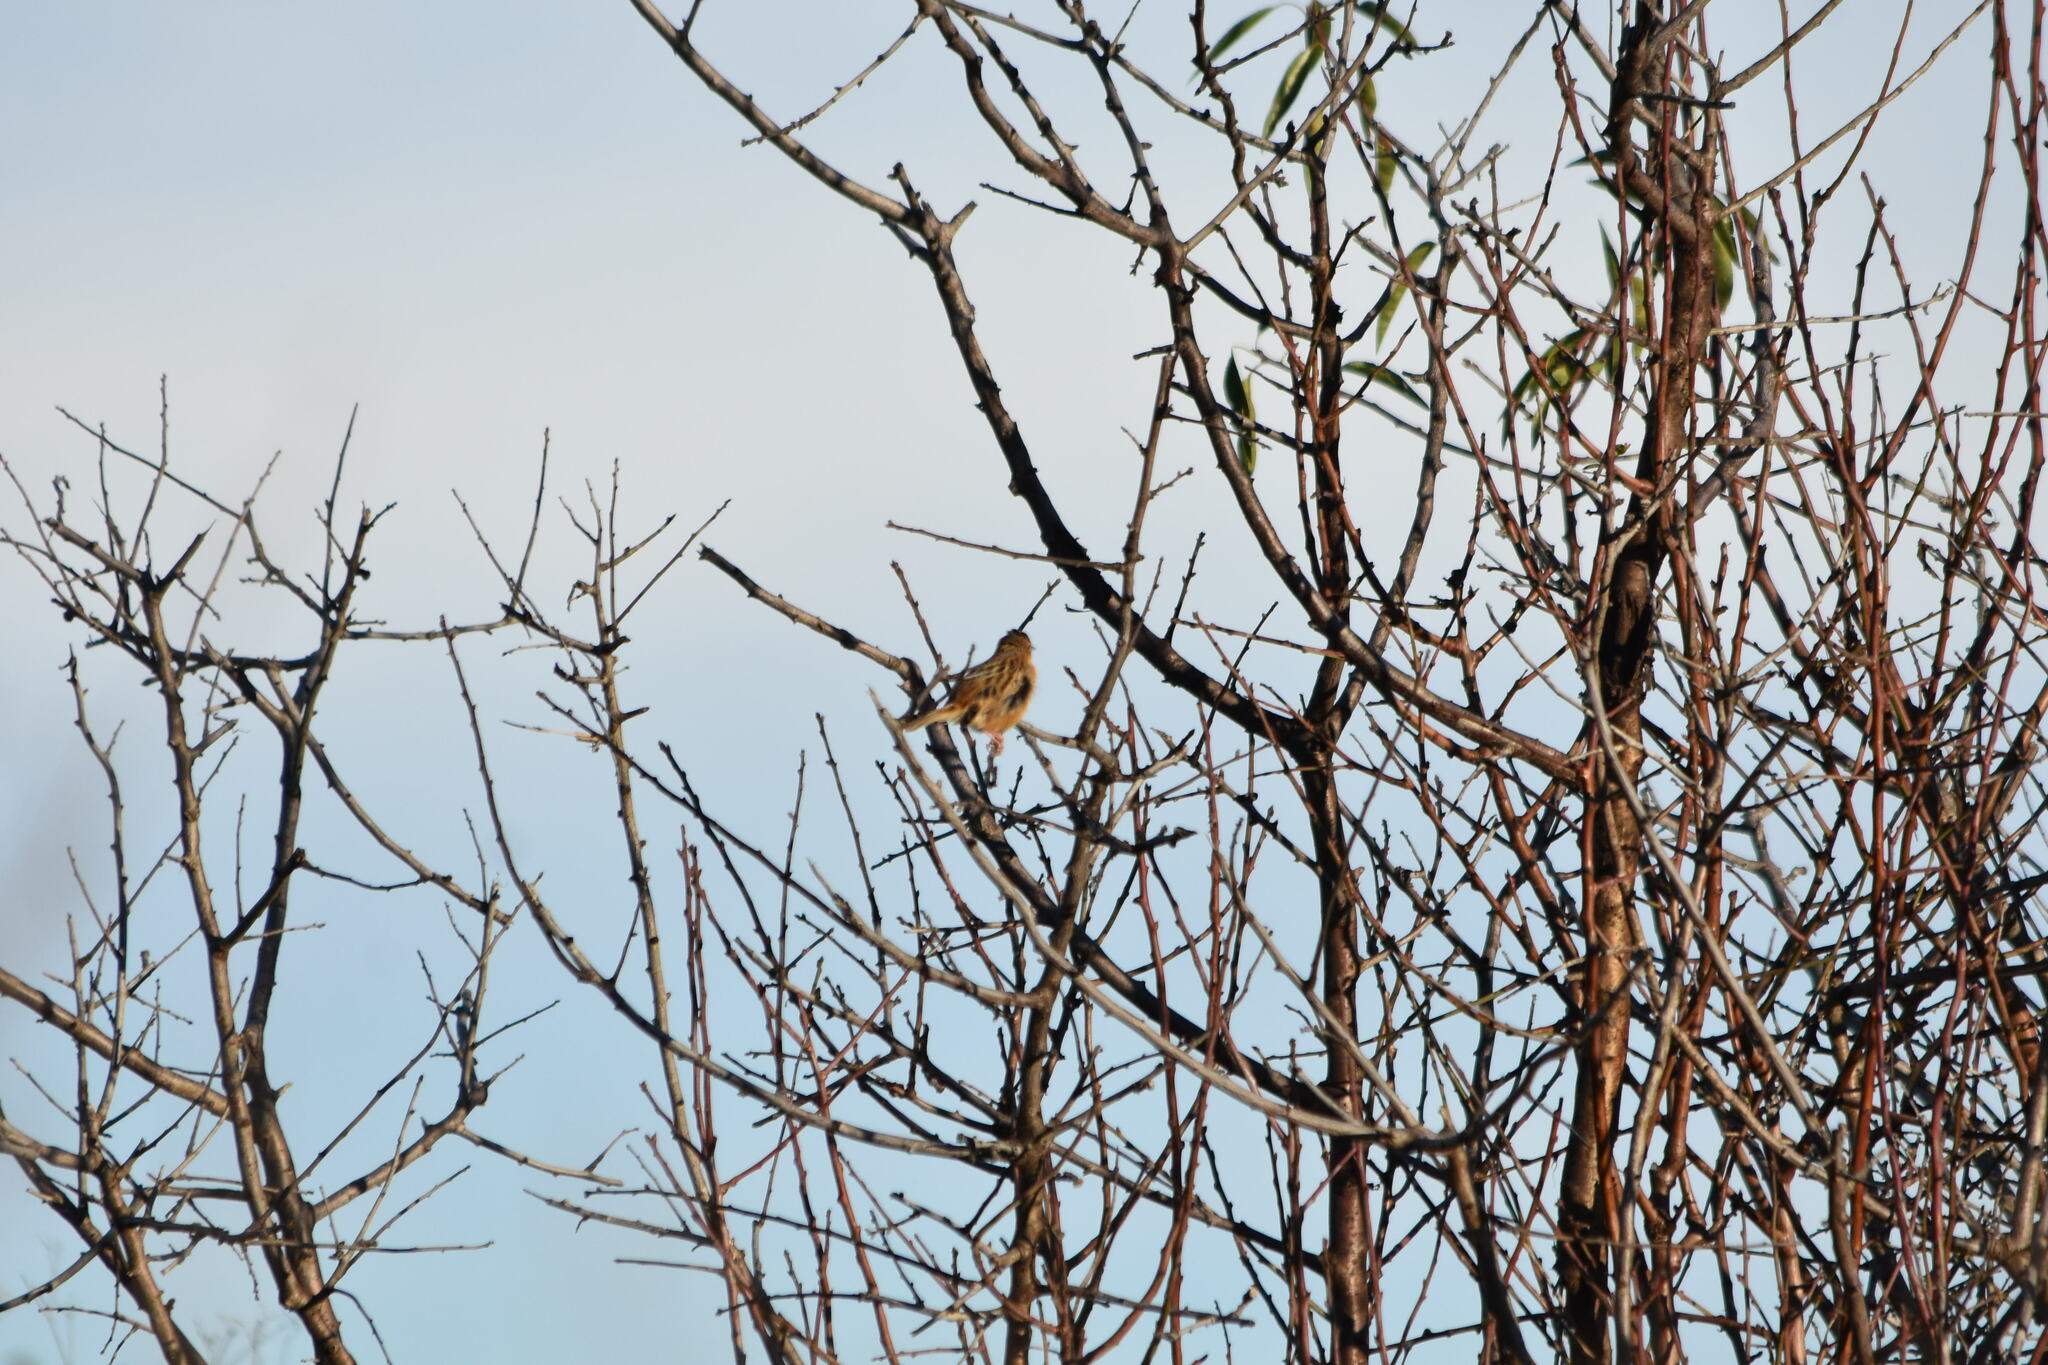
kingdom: Animalia
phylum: Chordata
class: Aves
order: Passeriformes
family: Cisticolidae
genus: Cisticola
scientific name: Cisticola juncidis
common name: Zitting cisticola
